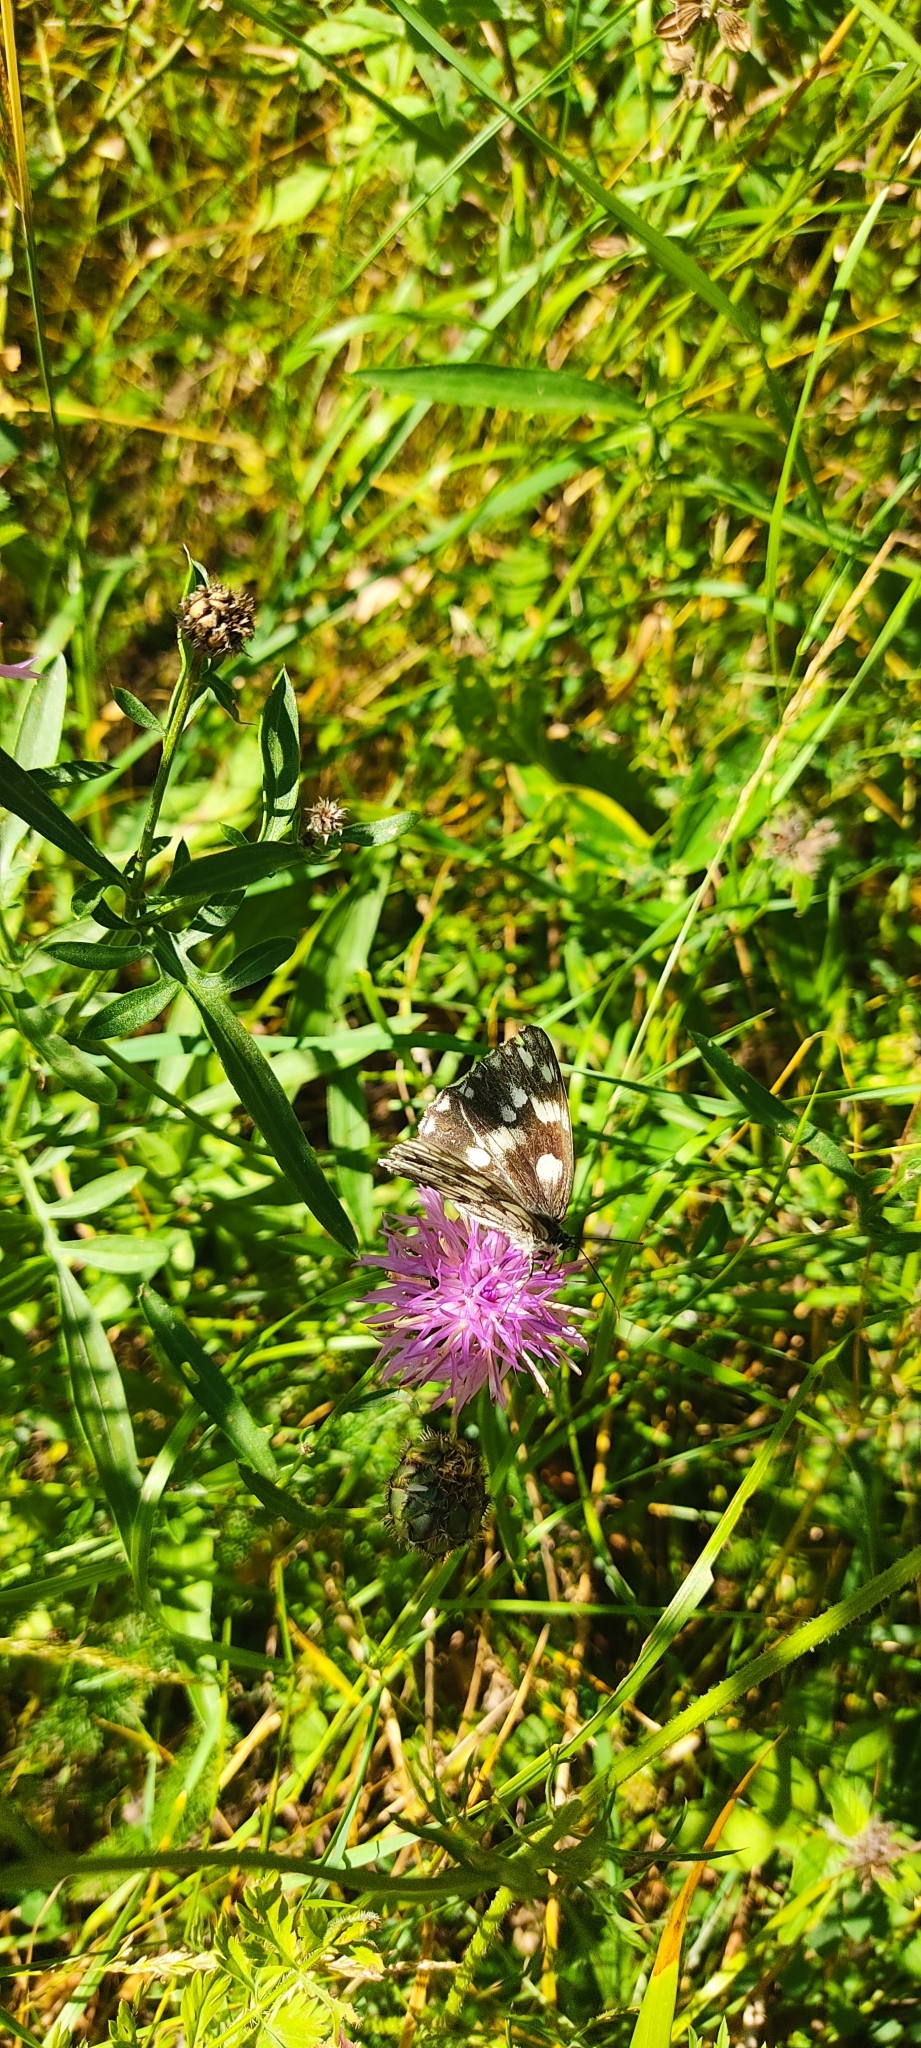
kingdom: Animalia
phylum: Arthropoda
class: Insecta
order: Lepidoptera
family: Nymphalidae
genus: Melanargia
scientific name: Melanargia galathea
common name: Marbled white
